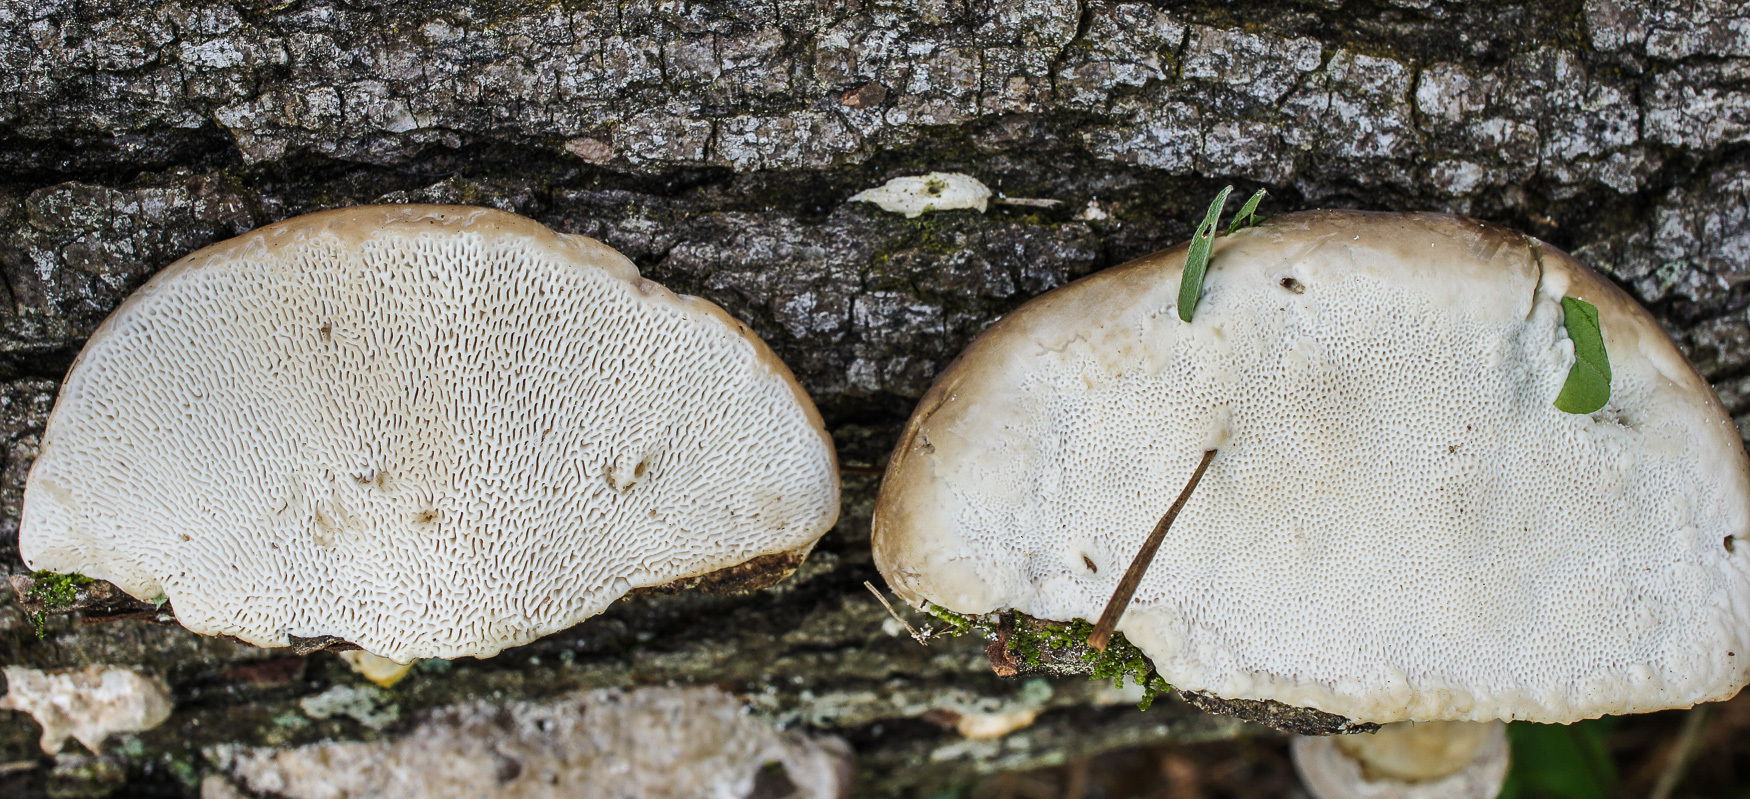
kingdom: Fungi
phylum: Basidiomycota
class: Agaricomycetes
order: Polyporales
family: Polyporaceae
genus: Trametes
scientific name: Trametes gibbosa
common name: Lumpy bracket
